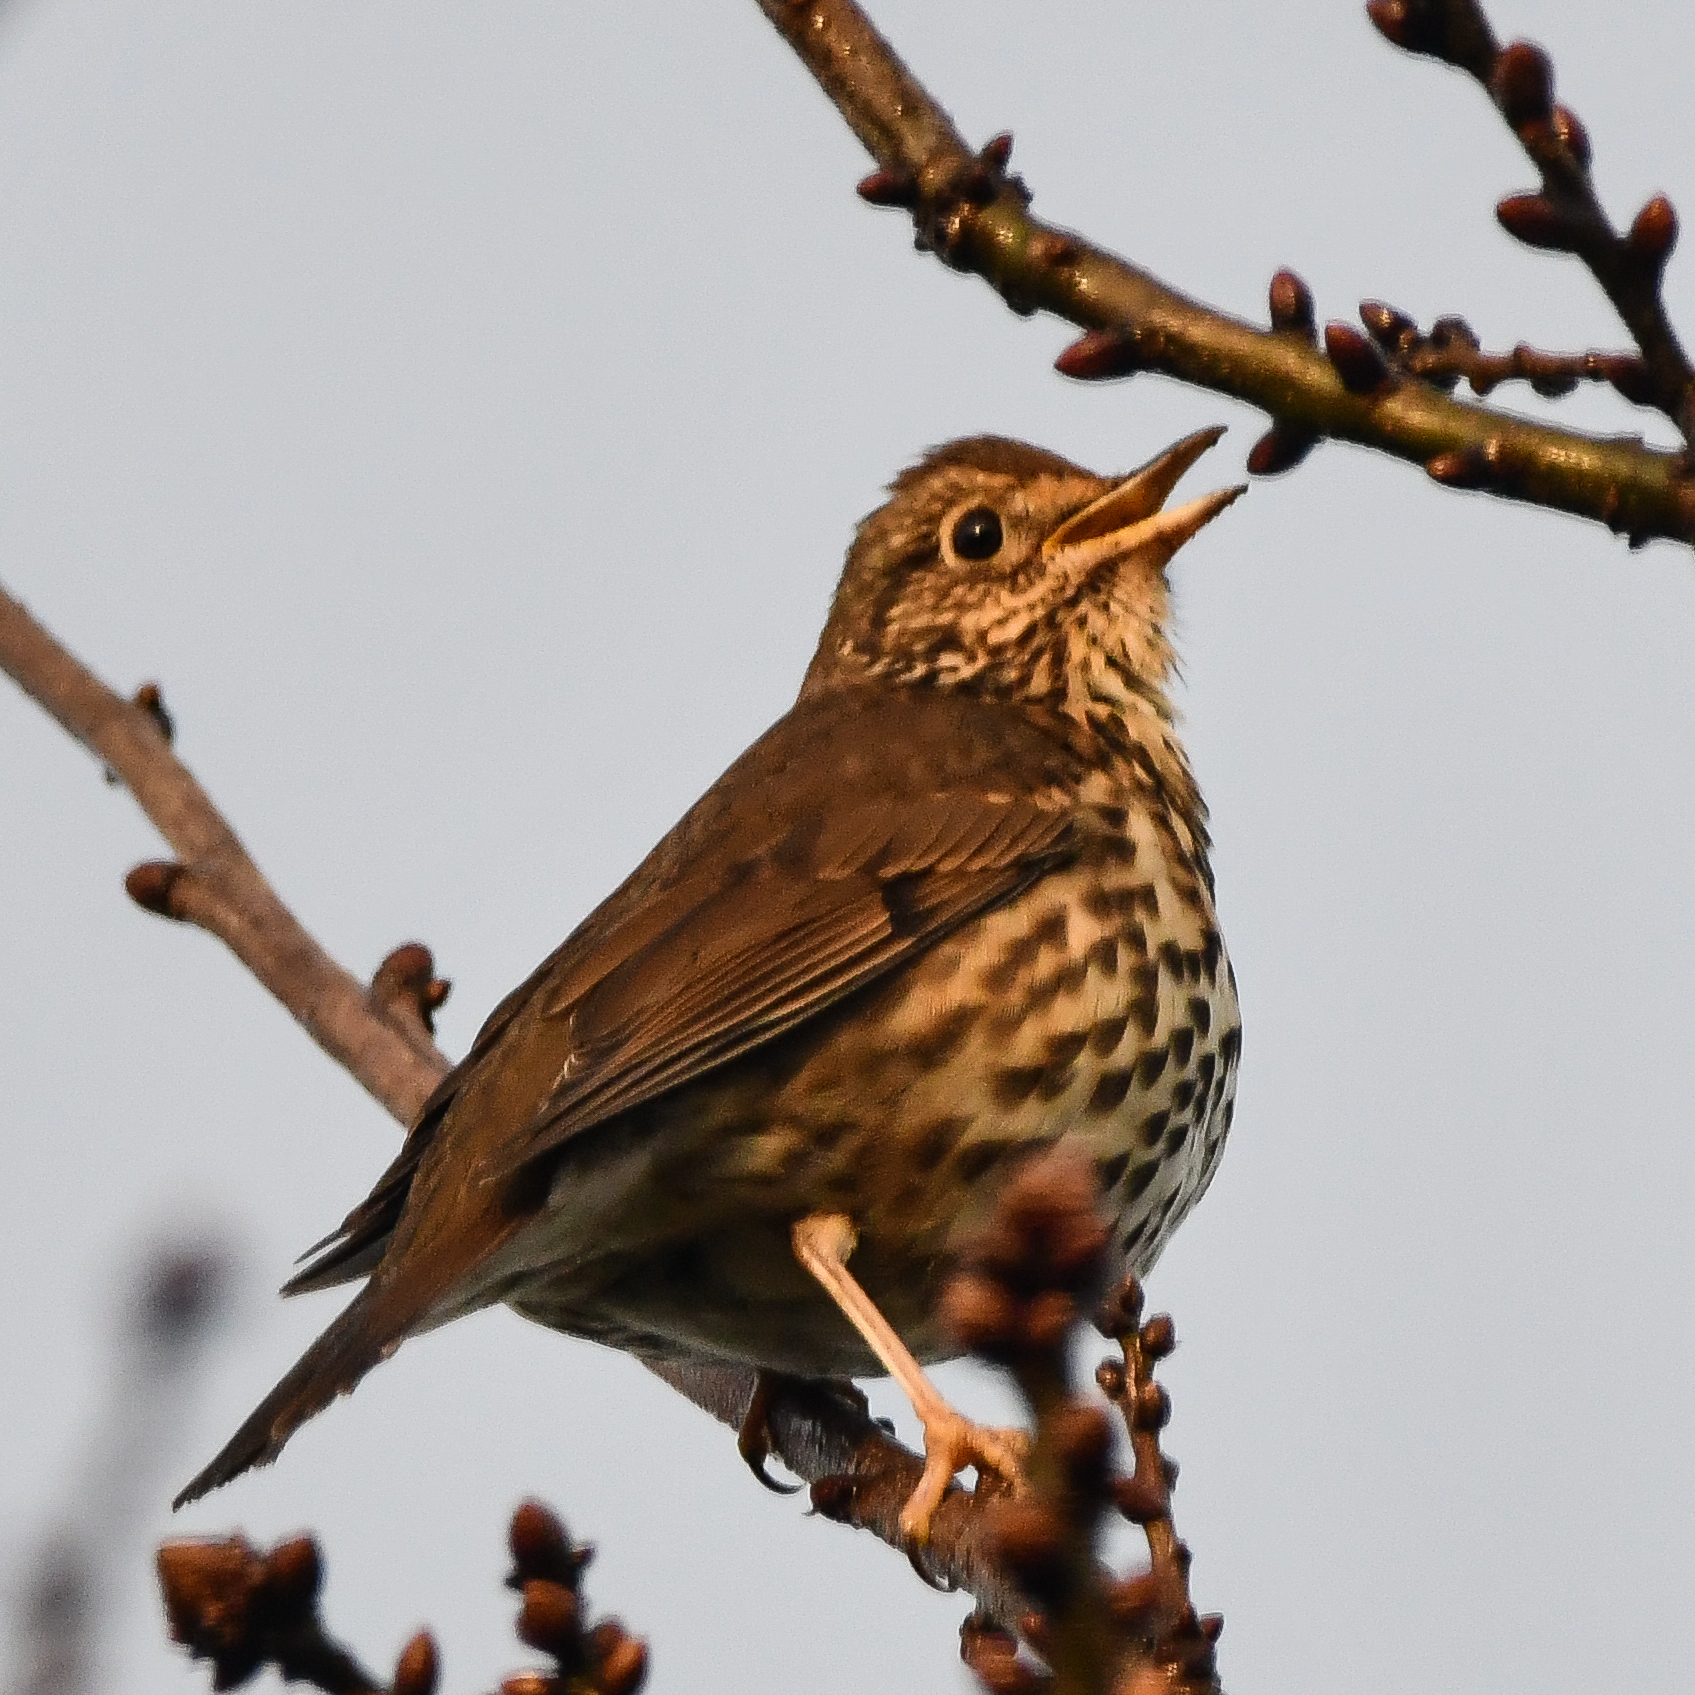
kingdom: Animalia
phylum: Chordata
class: Aves
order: Passeriformes
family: Turdidae
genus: Turdus
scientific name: Turdus philomelos
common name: Song thrush
